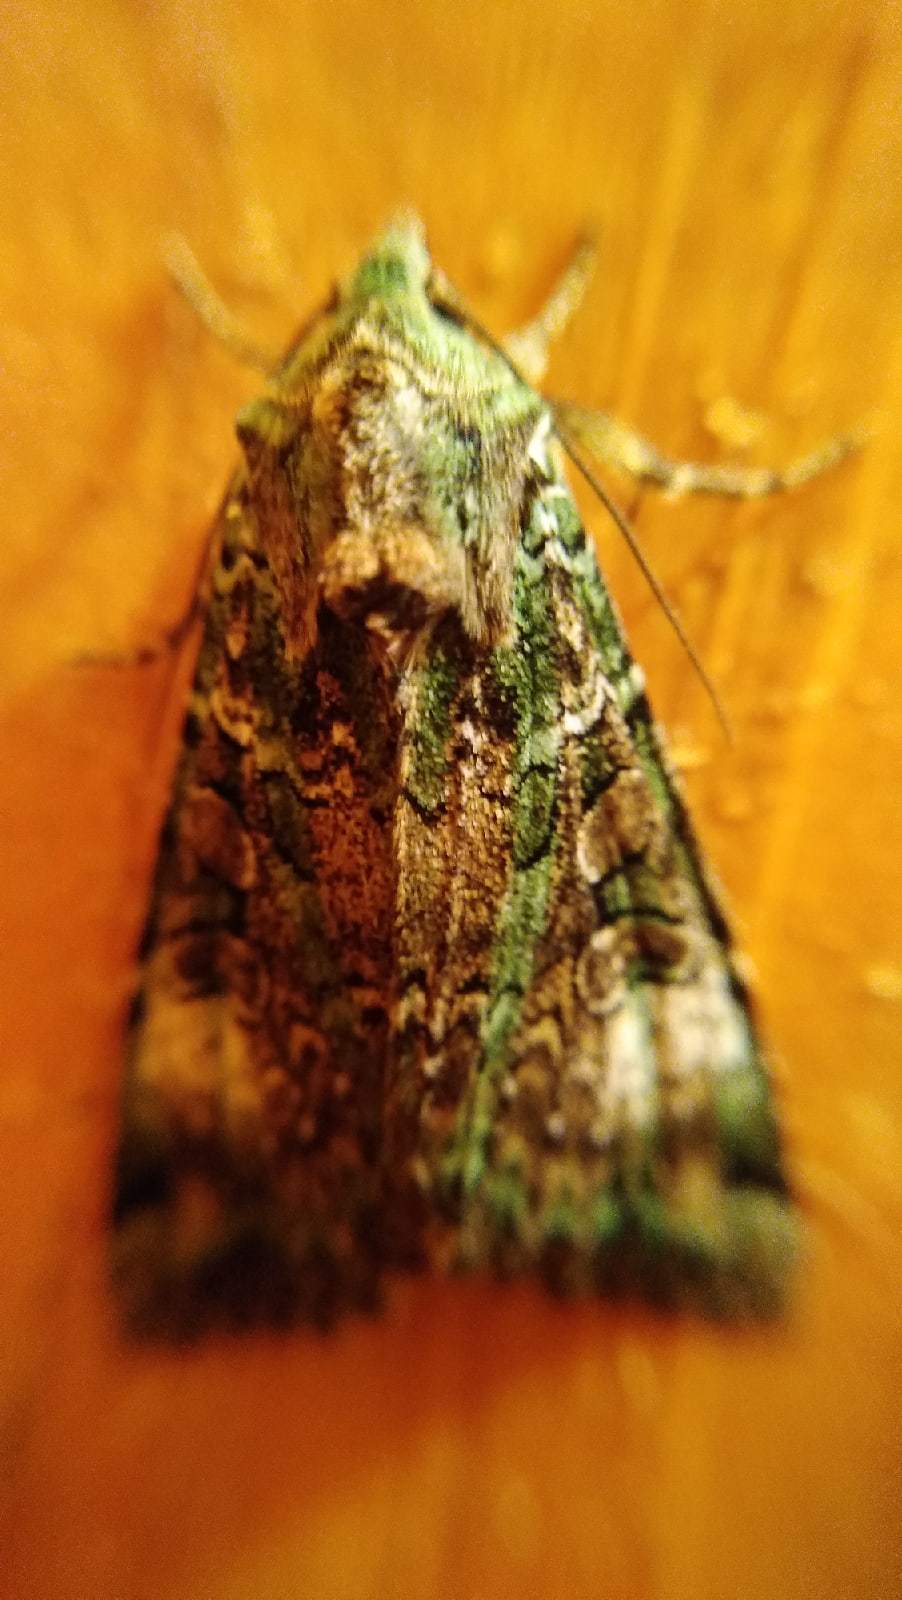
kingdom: Animalia
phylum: Arthropoda
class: Insecta
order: Lepidoptera
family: Noctuidae
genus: Anaplectoides
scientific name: Anaplectoides prasina
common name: Green arches
